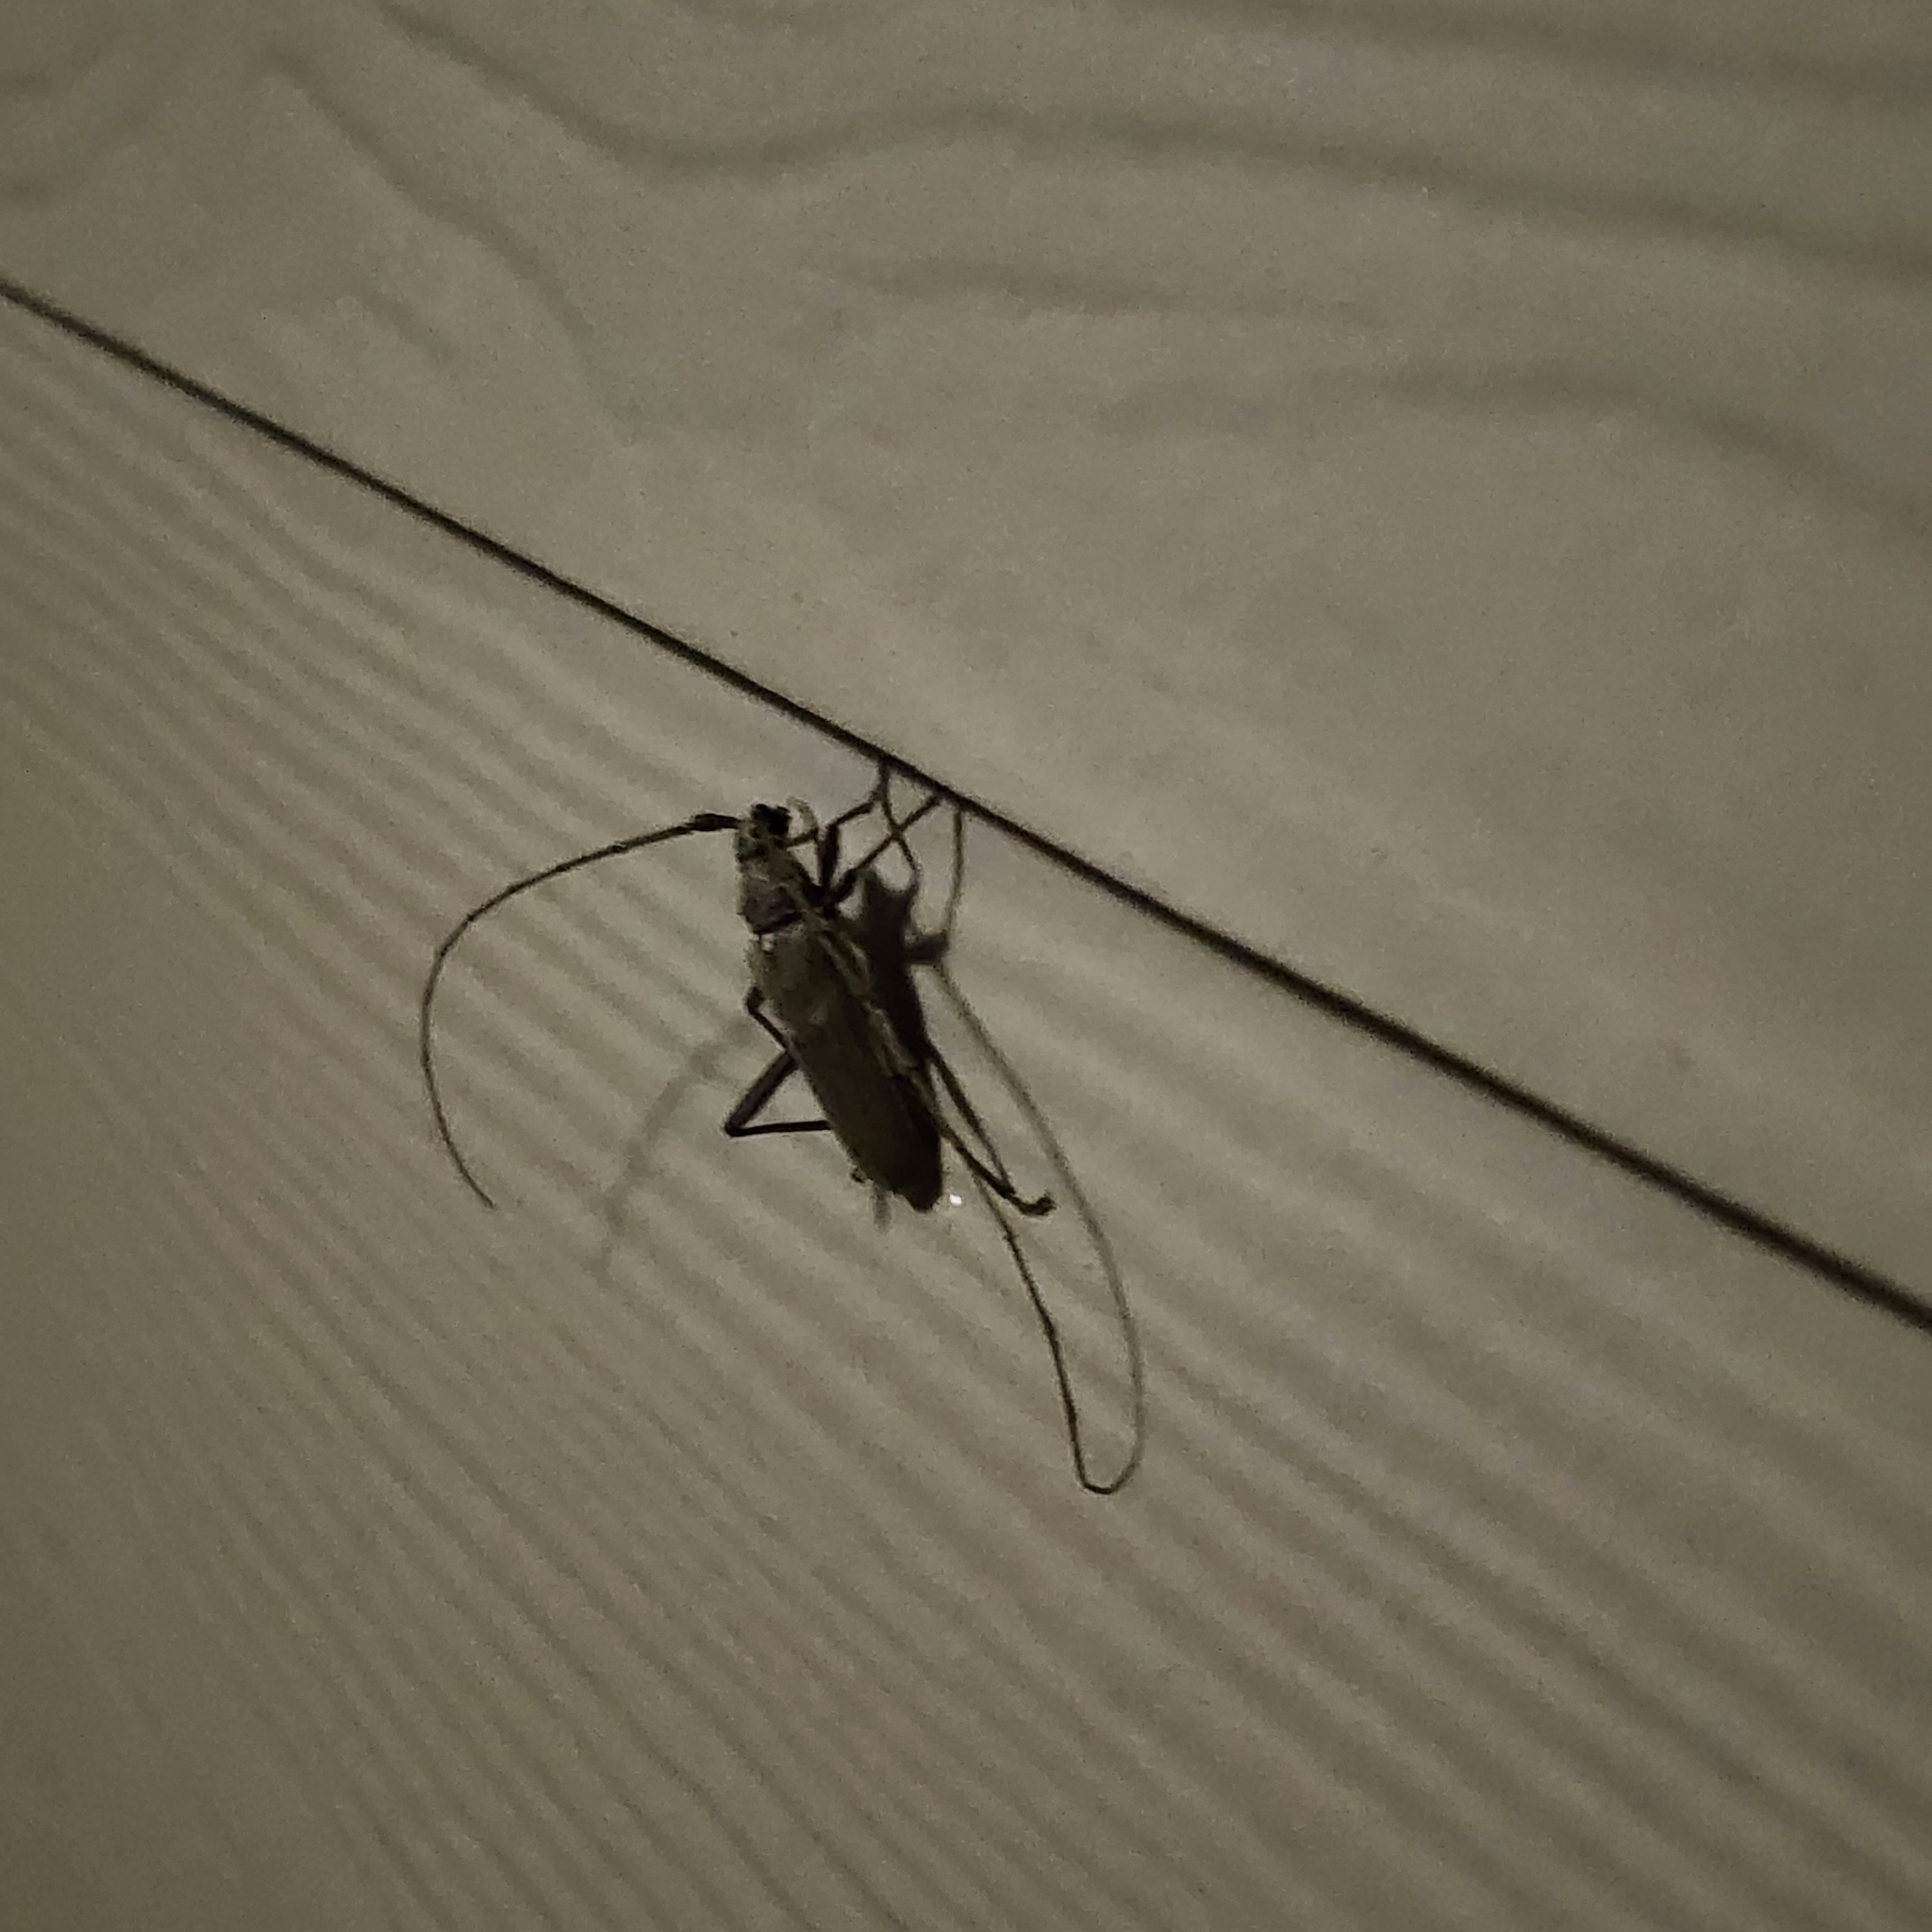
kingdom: Animalia
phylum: Arthropoda
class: Insecta
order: Coleoptera
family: Cerambycidae
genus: Knulliana
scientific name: Knulliana cincta
